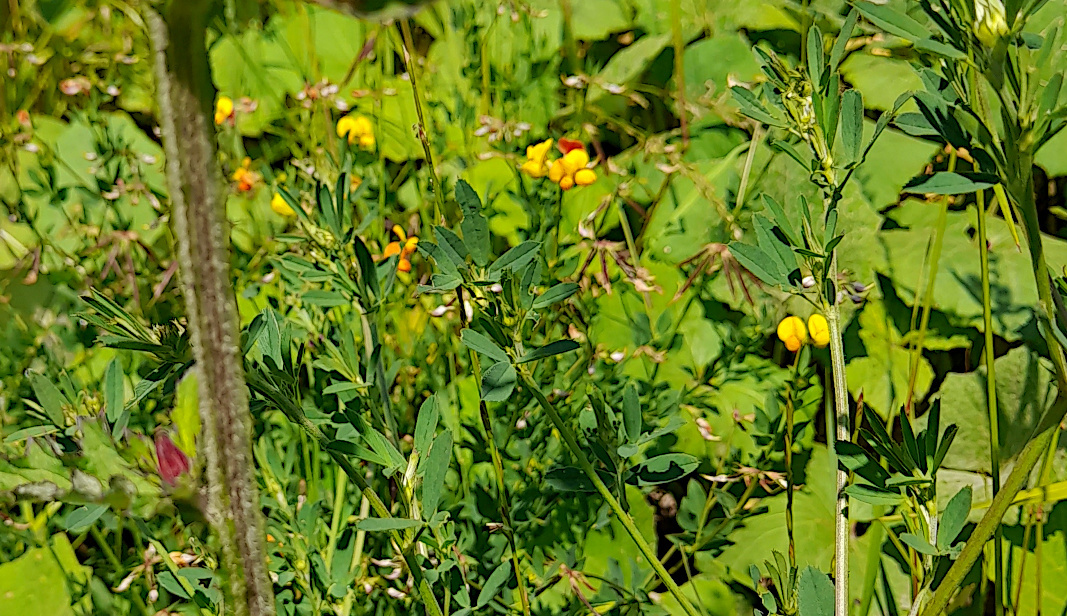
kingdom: Plantae
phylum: Tracheophyta
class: Magnoliopsida
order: Fabales
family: Fabaceae
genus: Lotus
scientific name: Lotus corniculatus
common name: Common bird's-foot-trefoil
